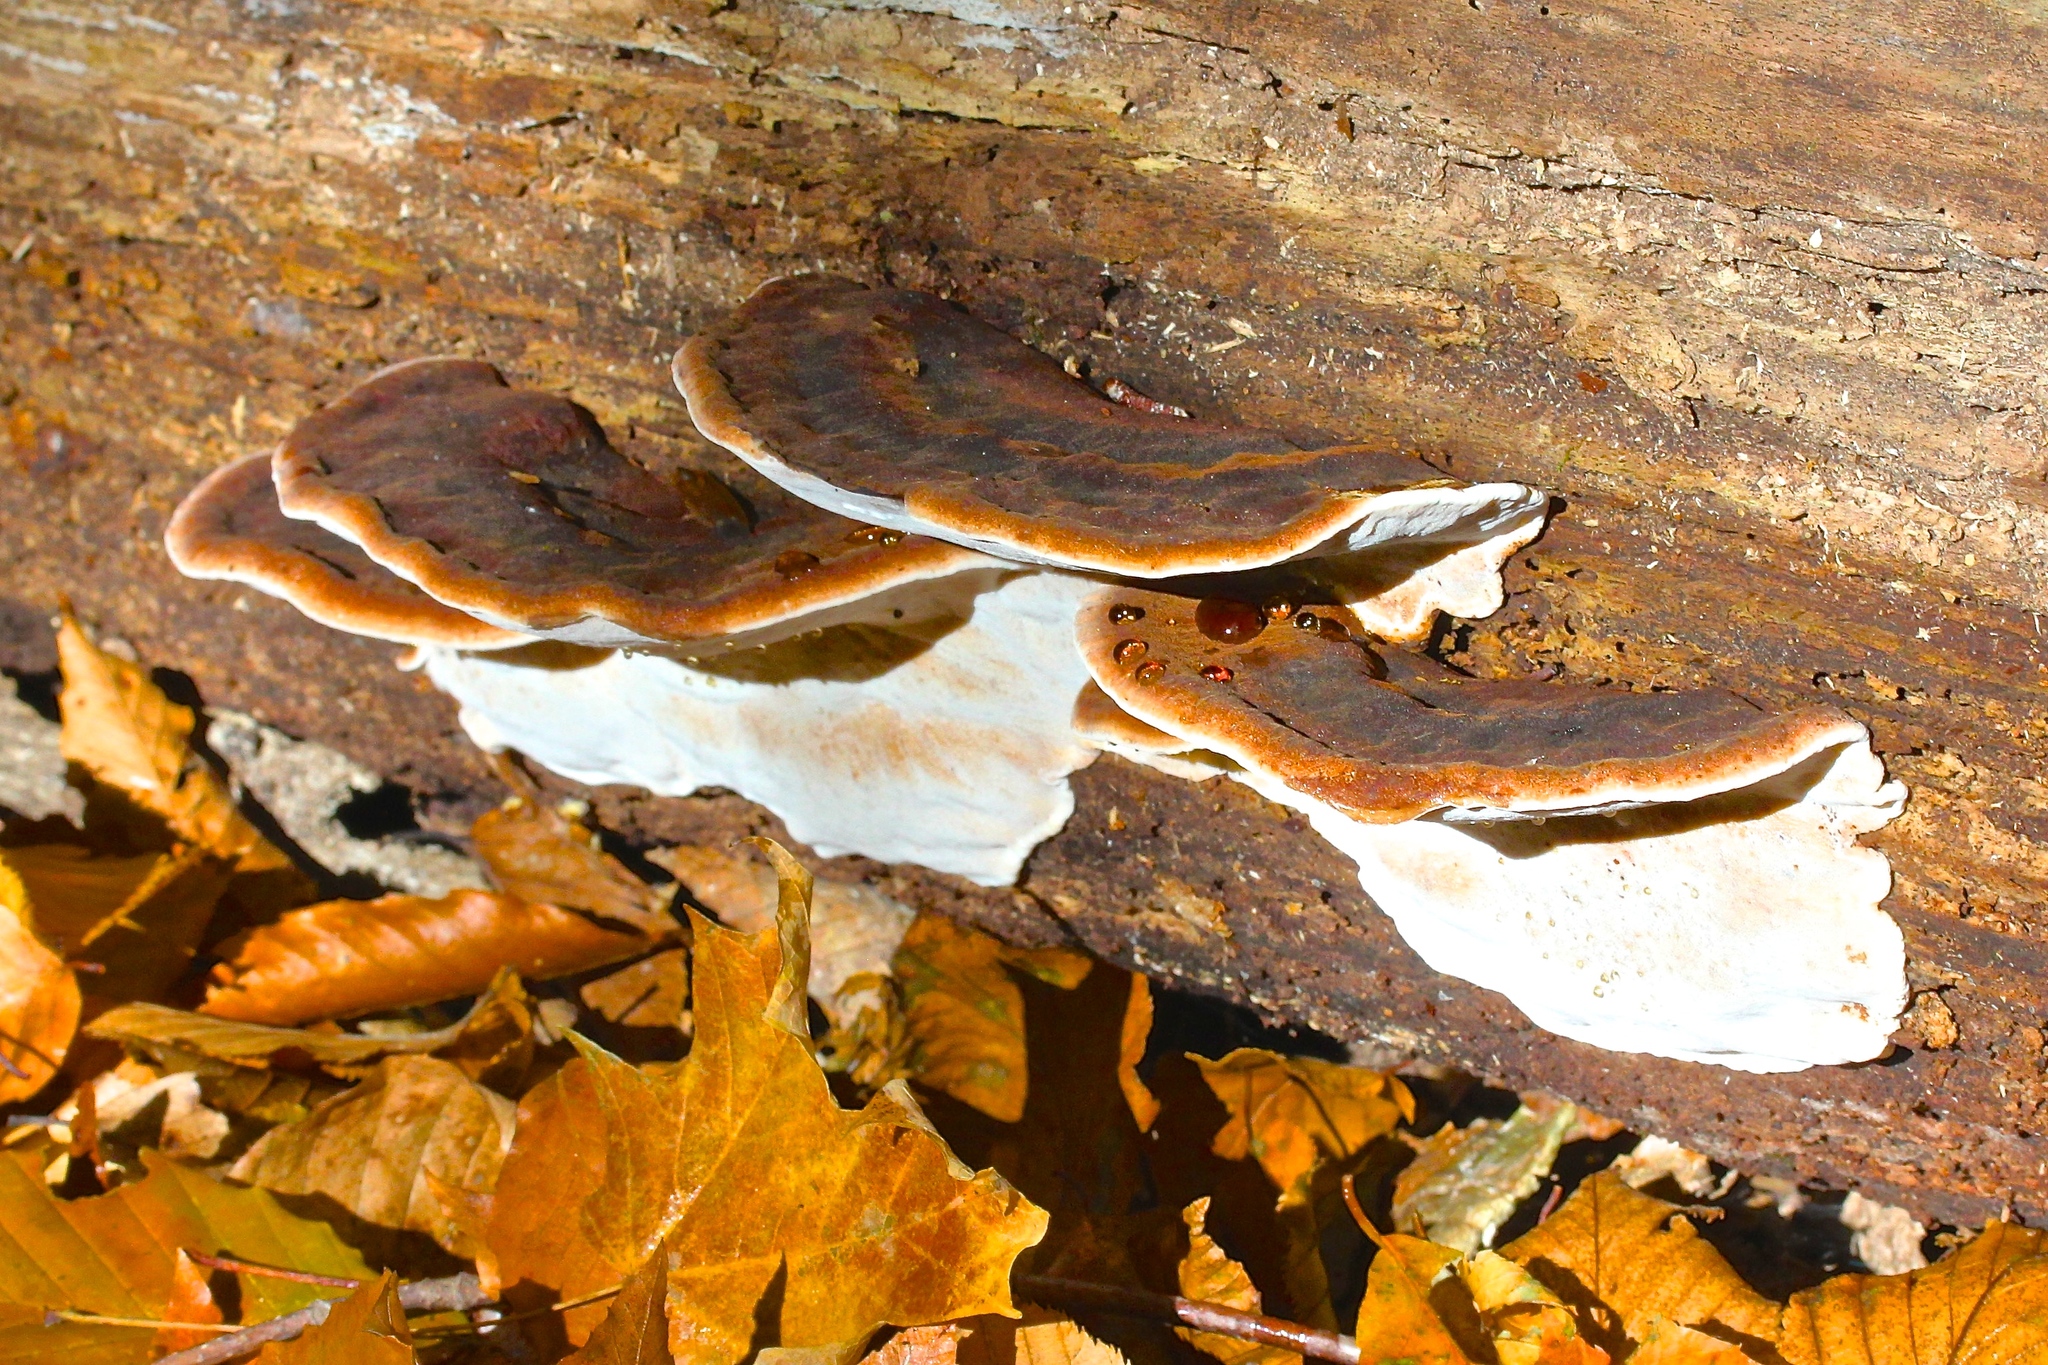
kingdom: Fungi
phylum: Basidiomycota
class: Agaricomycetes
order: Polyporales
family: Ischnodermataceae
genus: Ischnoderma
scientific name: Ischnoderma resinosum
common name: Resinous polypore
